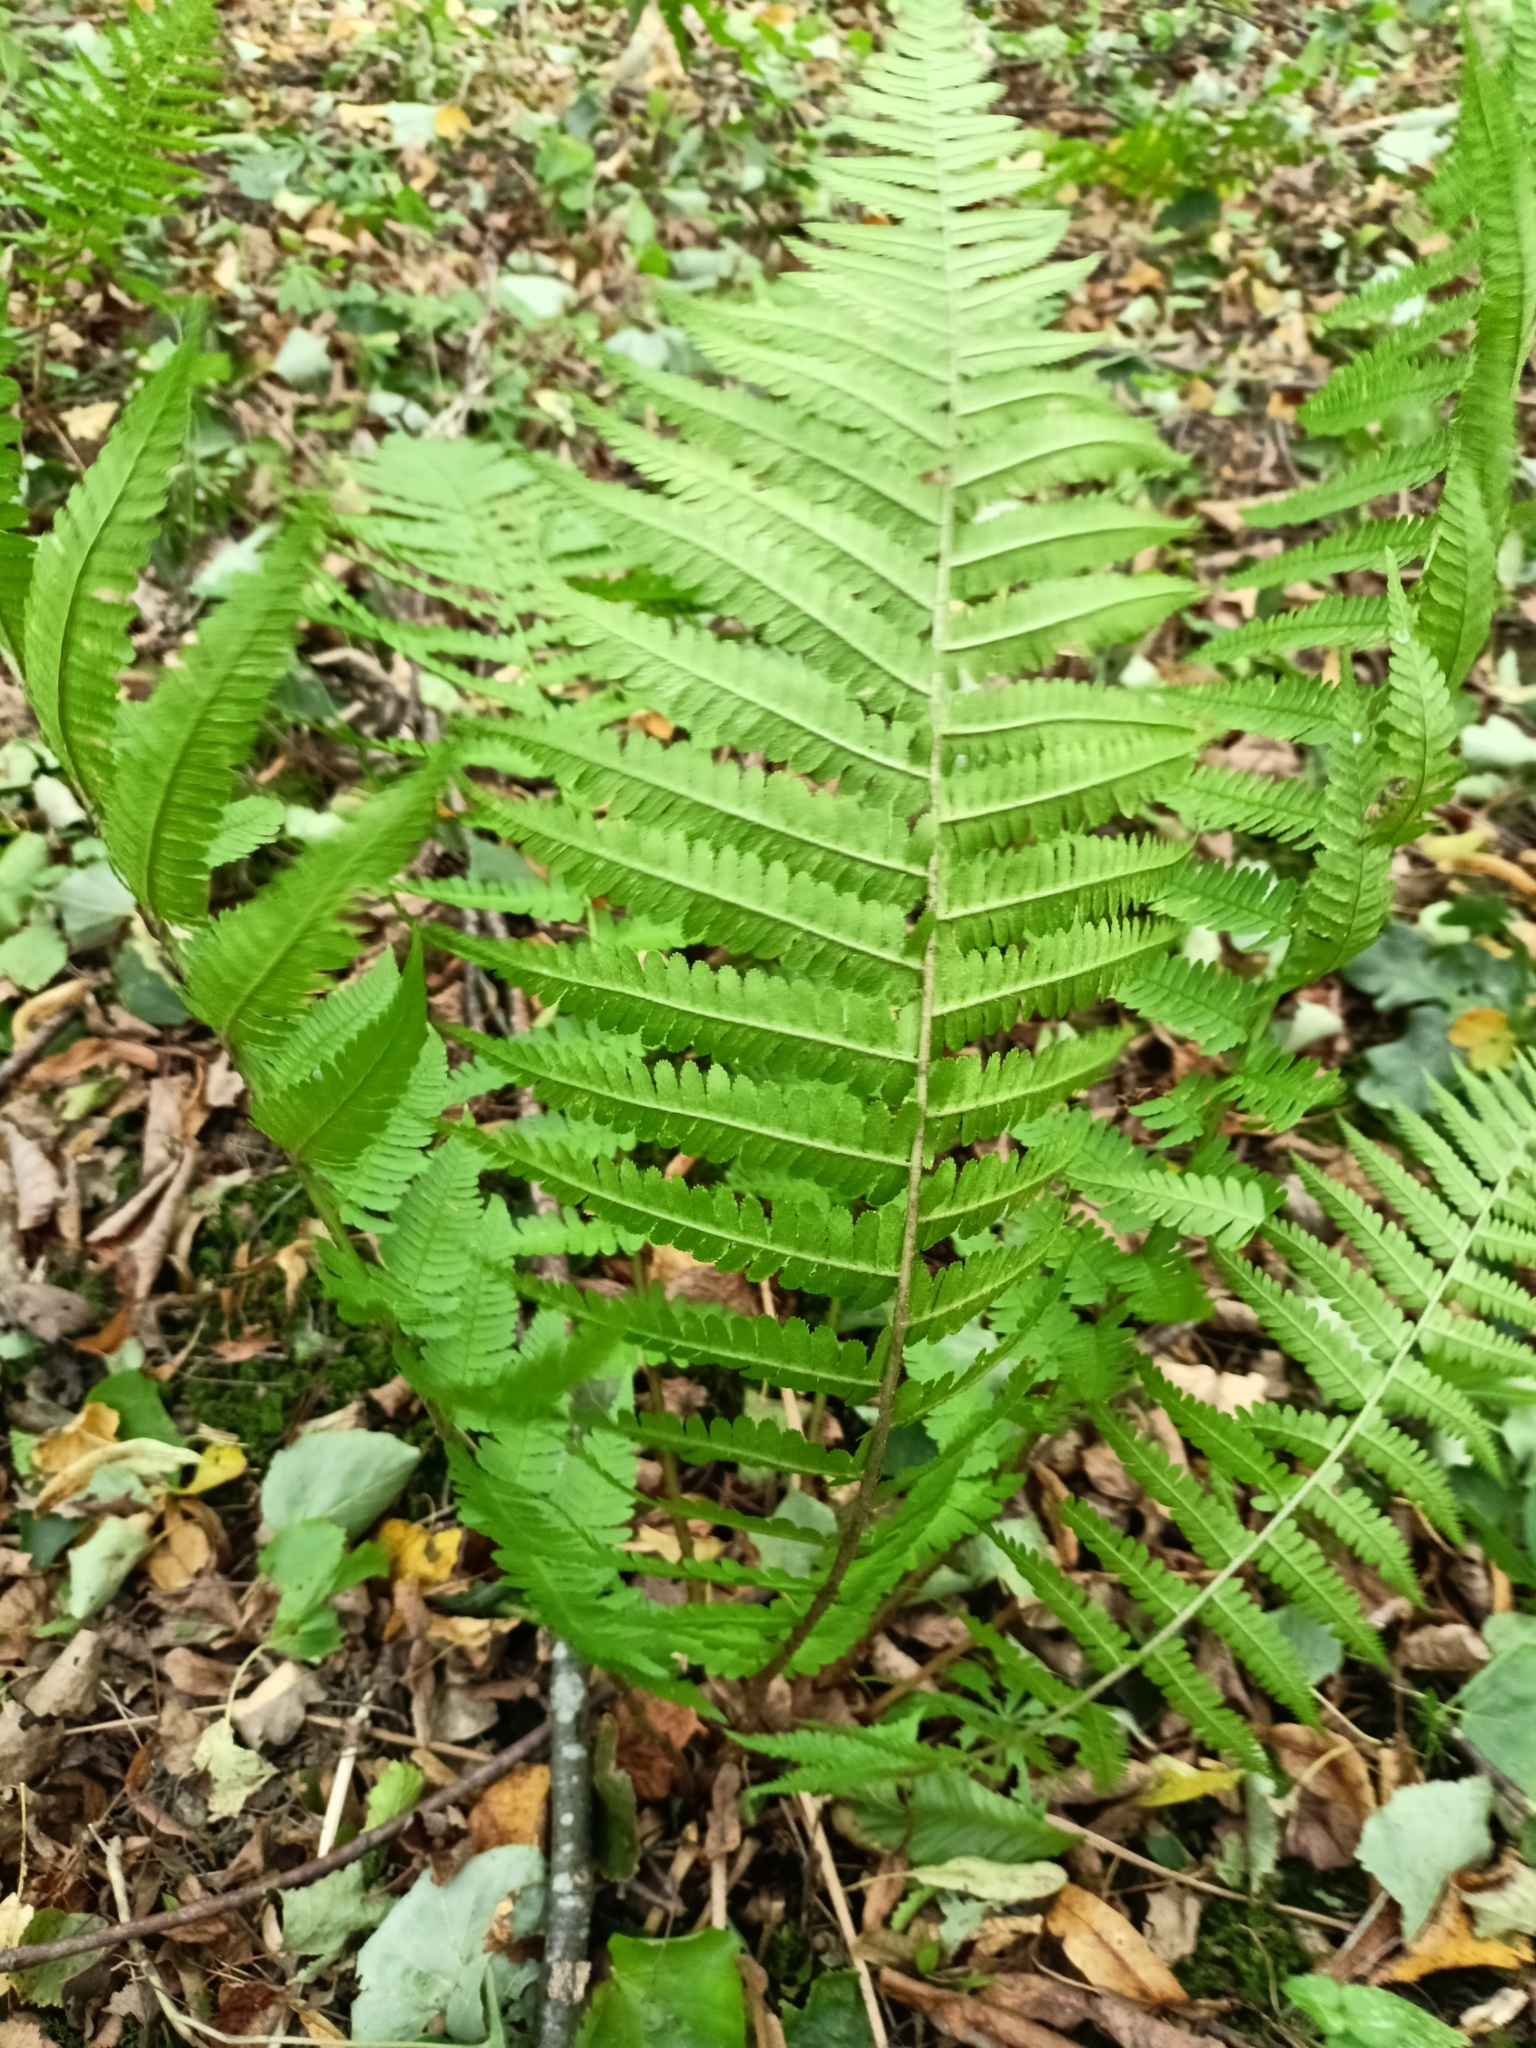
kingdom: Plantae
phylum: Tracheophyta
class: Polypodiopsida
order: Polypodiales
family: Dryopteridaceae
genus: Dryopteris
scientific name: Dryopteris filix-mas
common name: Male fern
